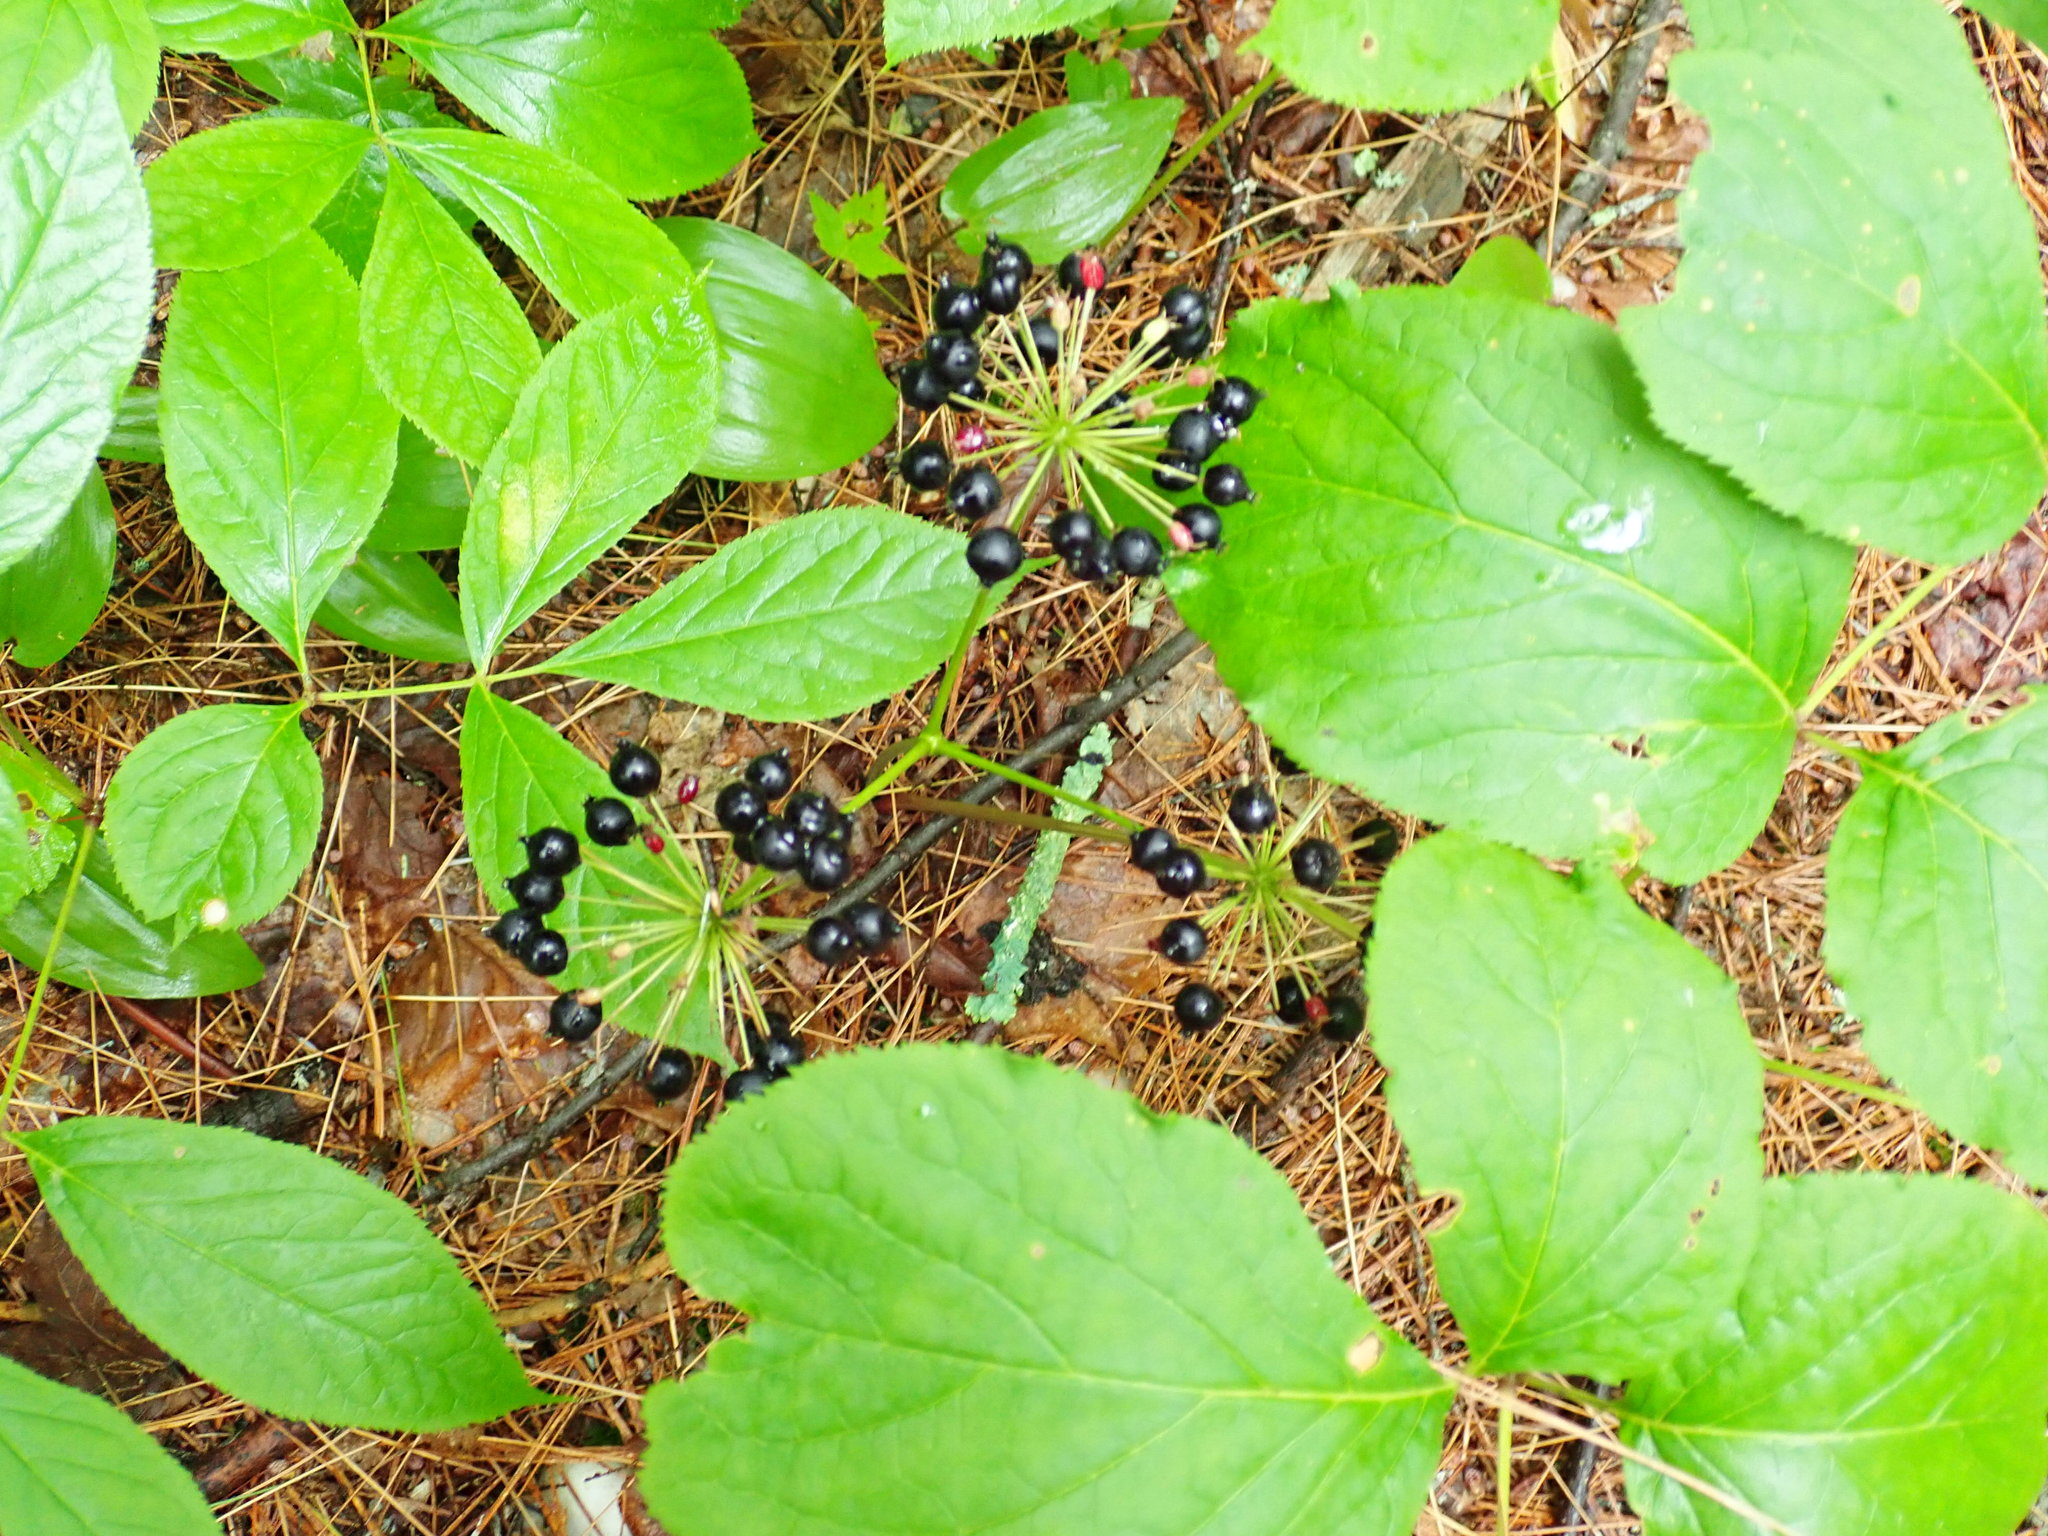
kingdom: Plantae
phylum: Tracheophyta
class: Magnoliopsida
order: Apiales
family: Araliaceae
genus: Aralia
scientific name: Aralia nudicaulis
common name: Wild sarsaparilla
